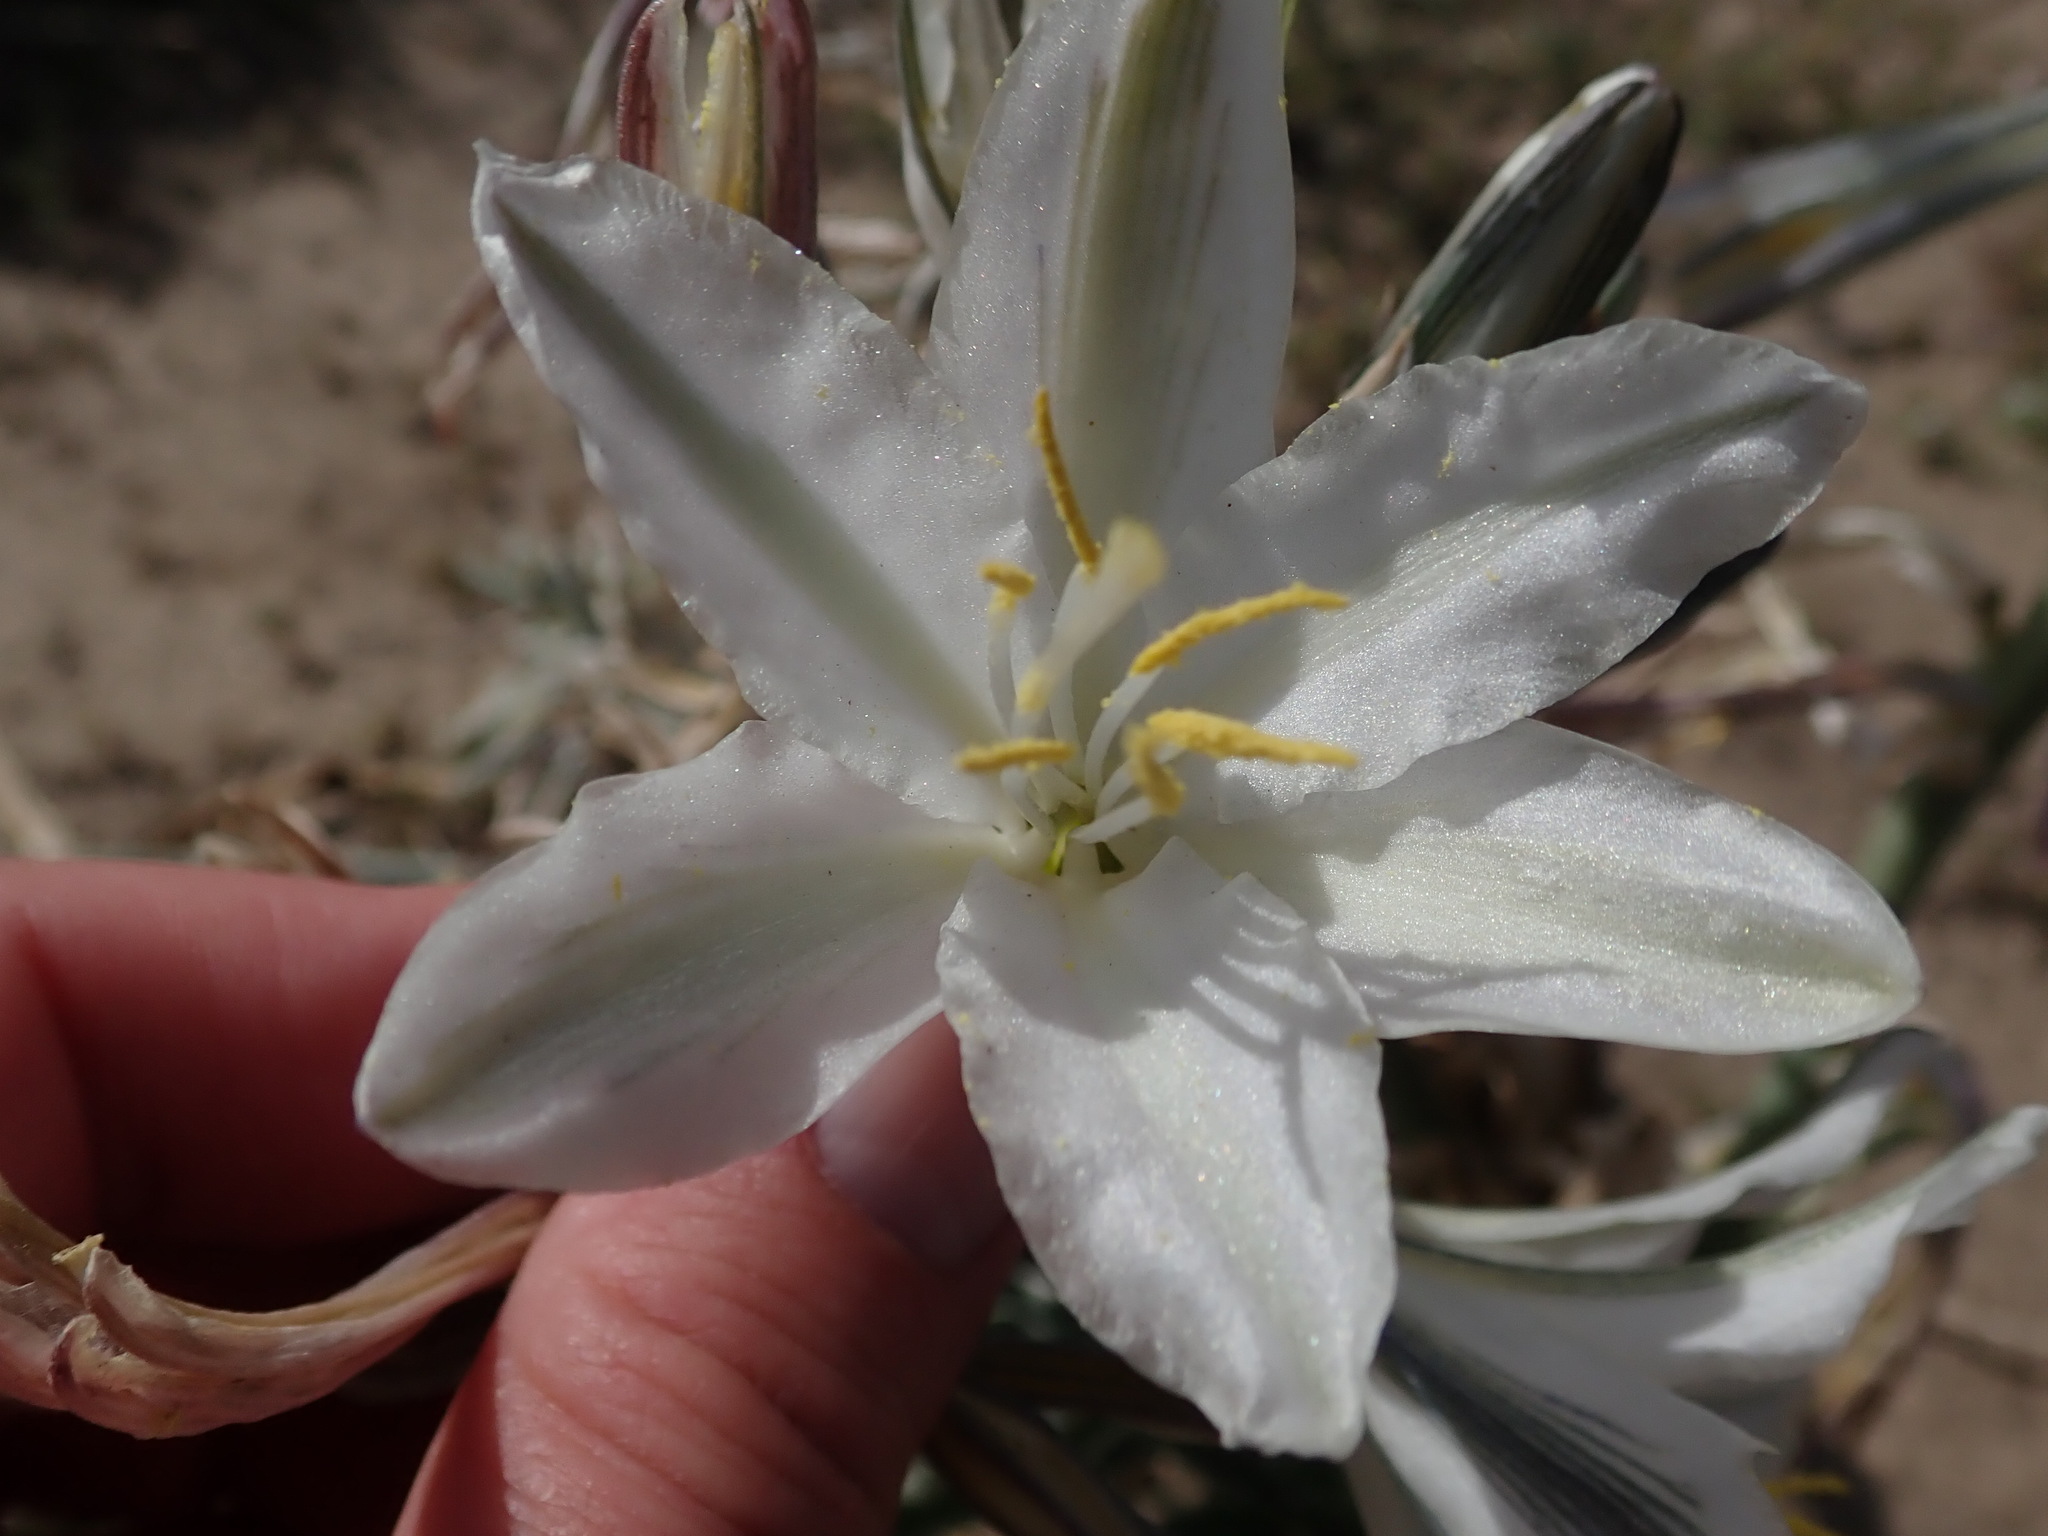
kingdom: Plantae
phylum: Tracheophyta
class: Liliopsida
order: Asparagales
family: Asparagaceae
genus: Hesperocallis
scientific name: Hesperocallis undulata
